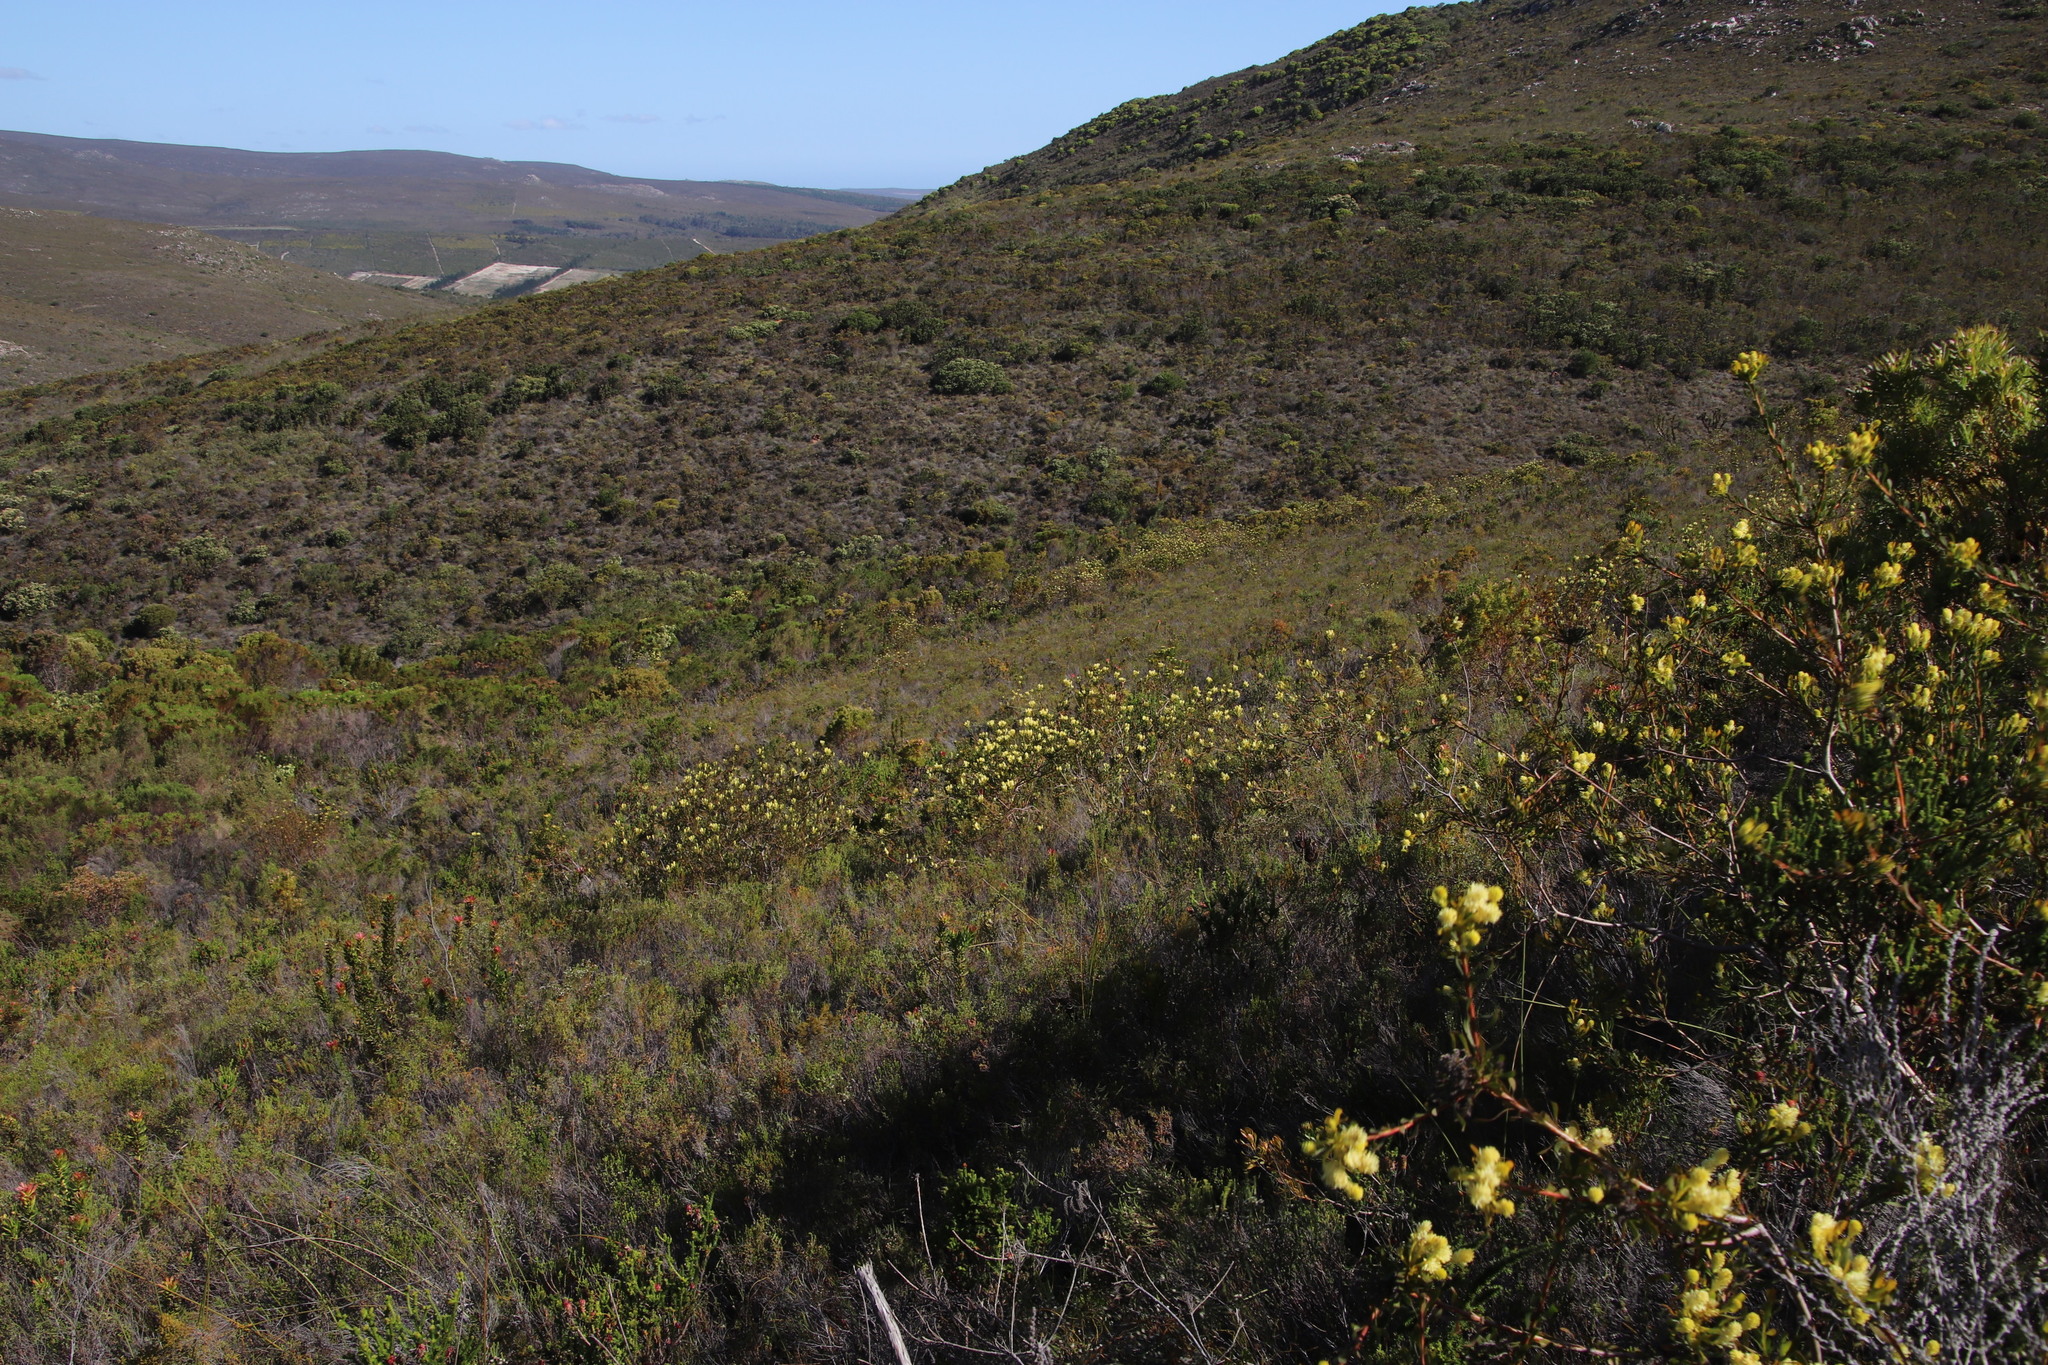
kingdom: Plantae
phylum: Tracheophyta
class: Magnoliopsida
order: Proteales
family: Proteaceae
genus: Aulax
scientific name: Aulax umbellata
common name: Broad-leaf featherbush
